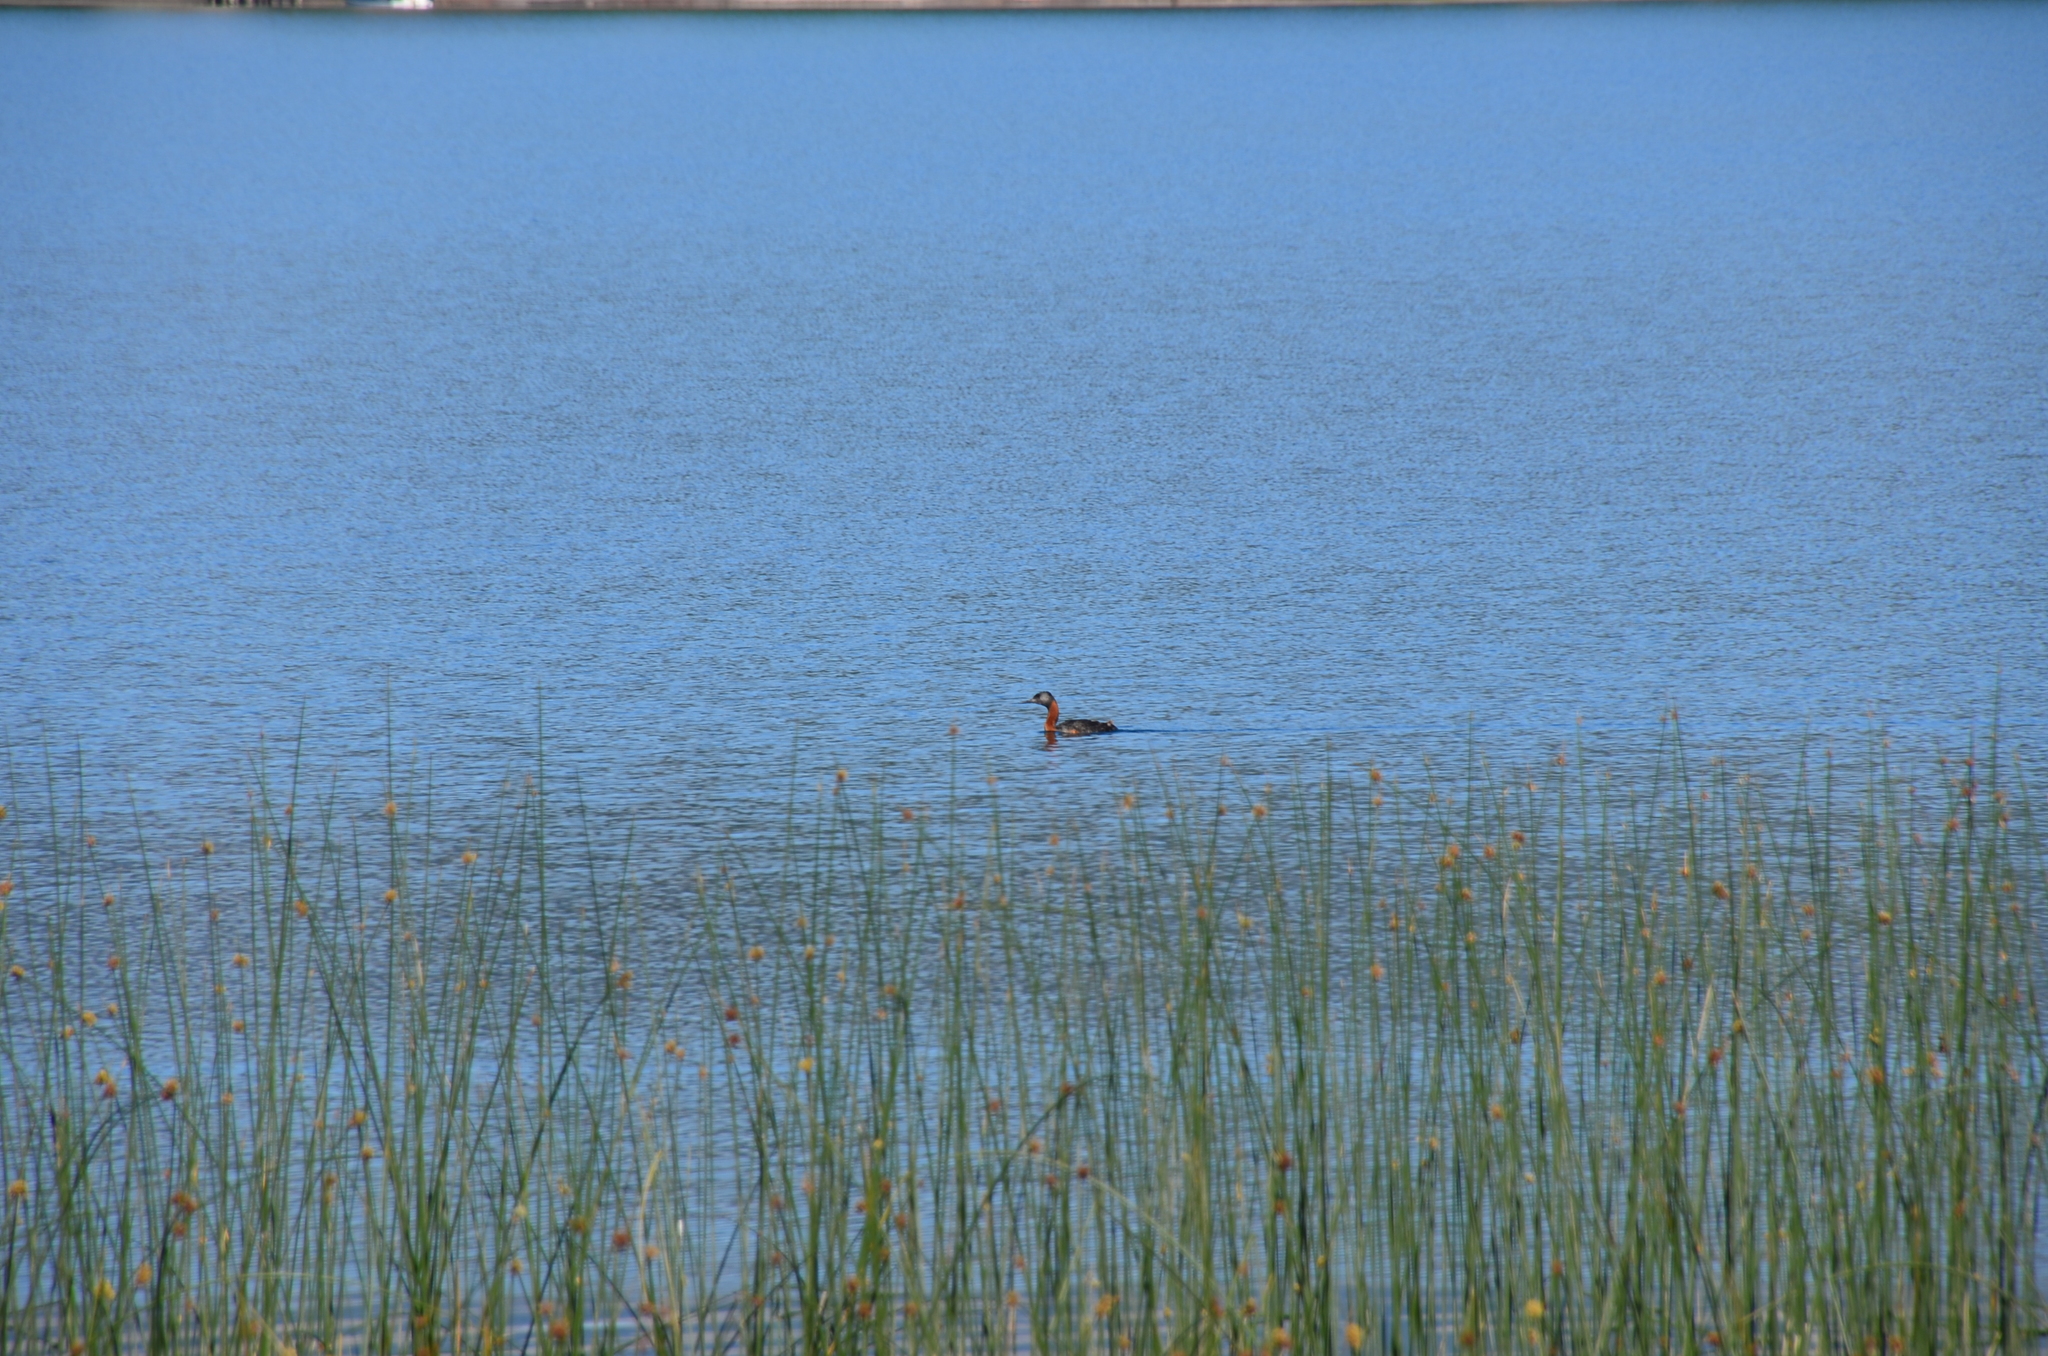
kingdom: Animalia
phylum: Chordata
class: Aves
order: Podicipediformes
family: Podicipedidae
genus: Podiceps
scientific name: Podiceps major
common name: Great grebe
